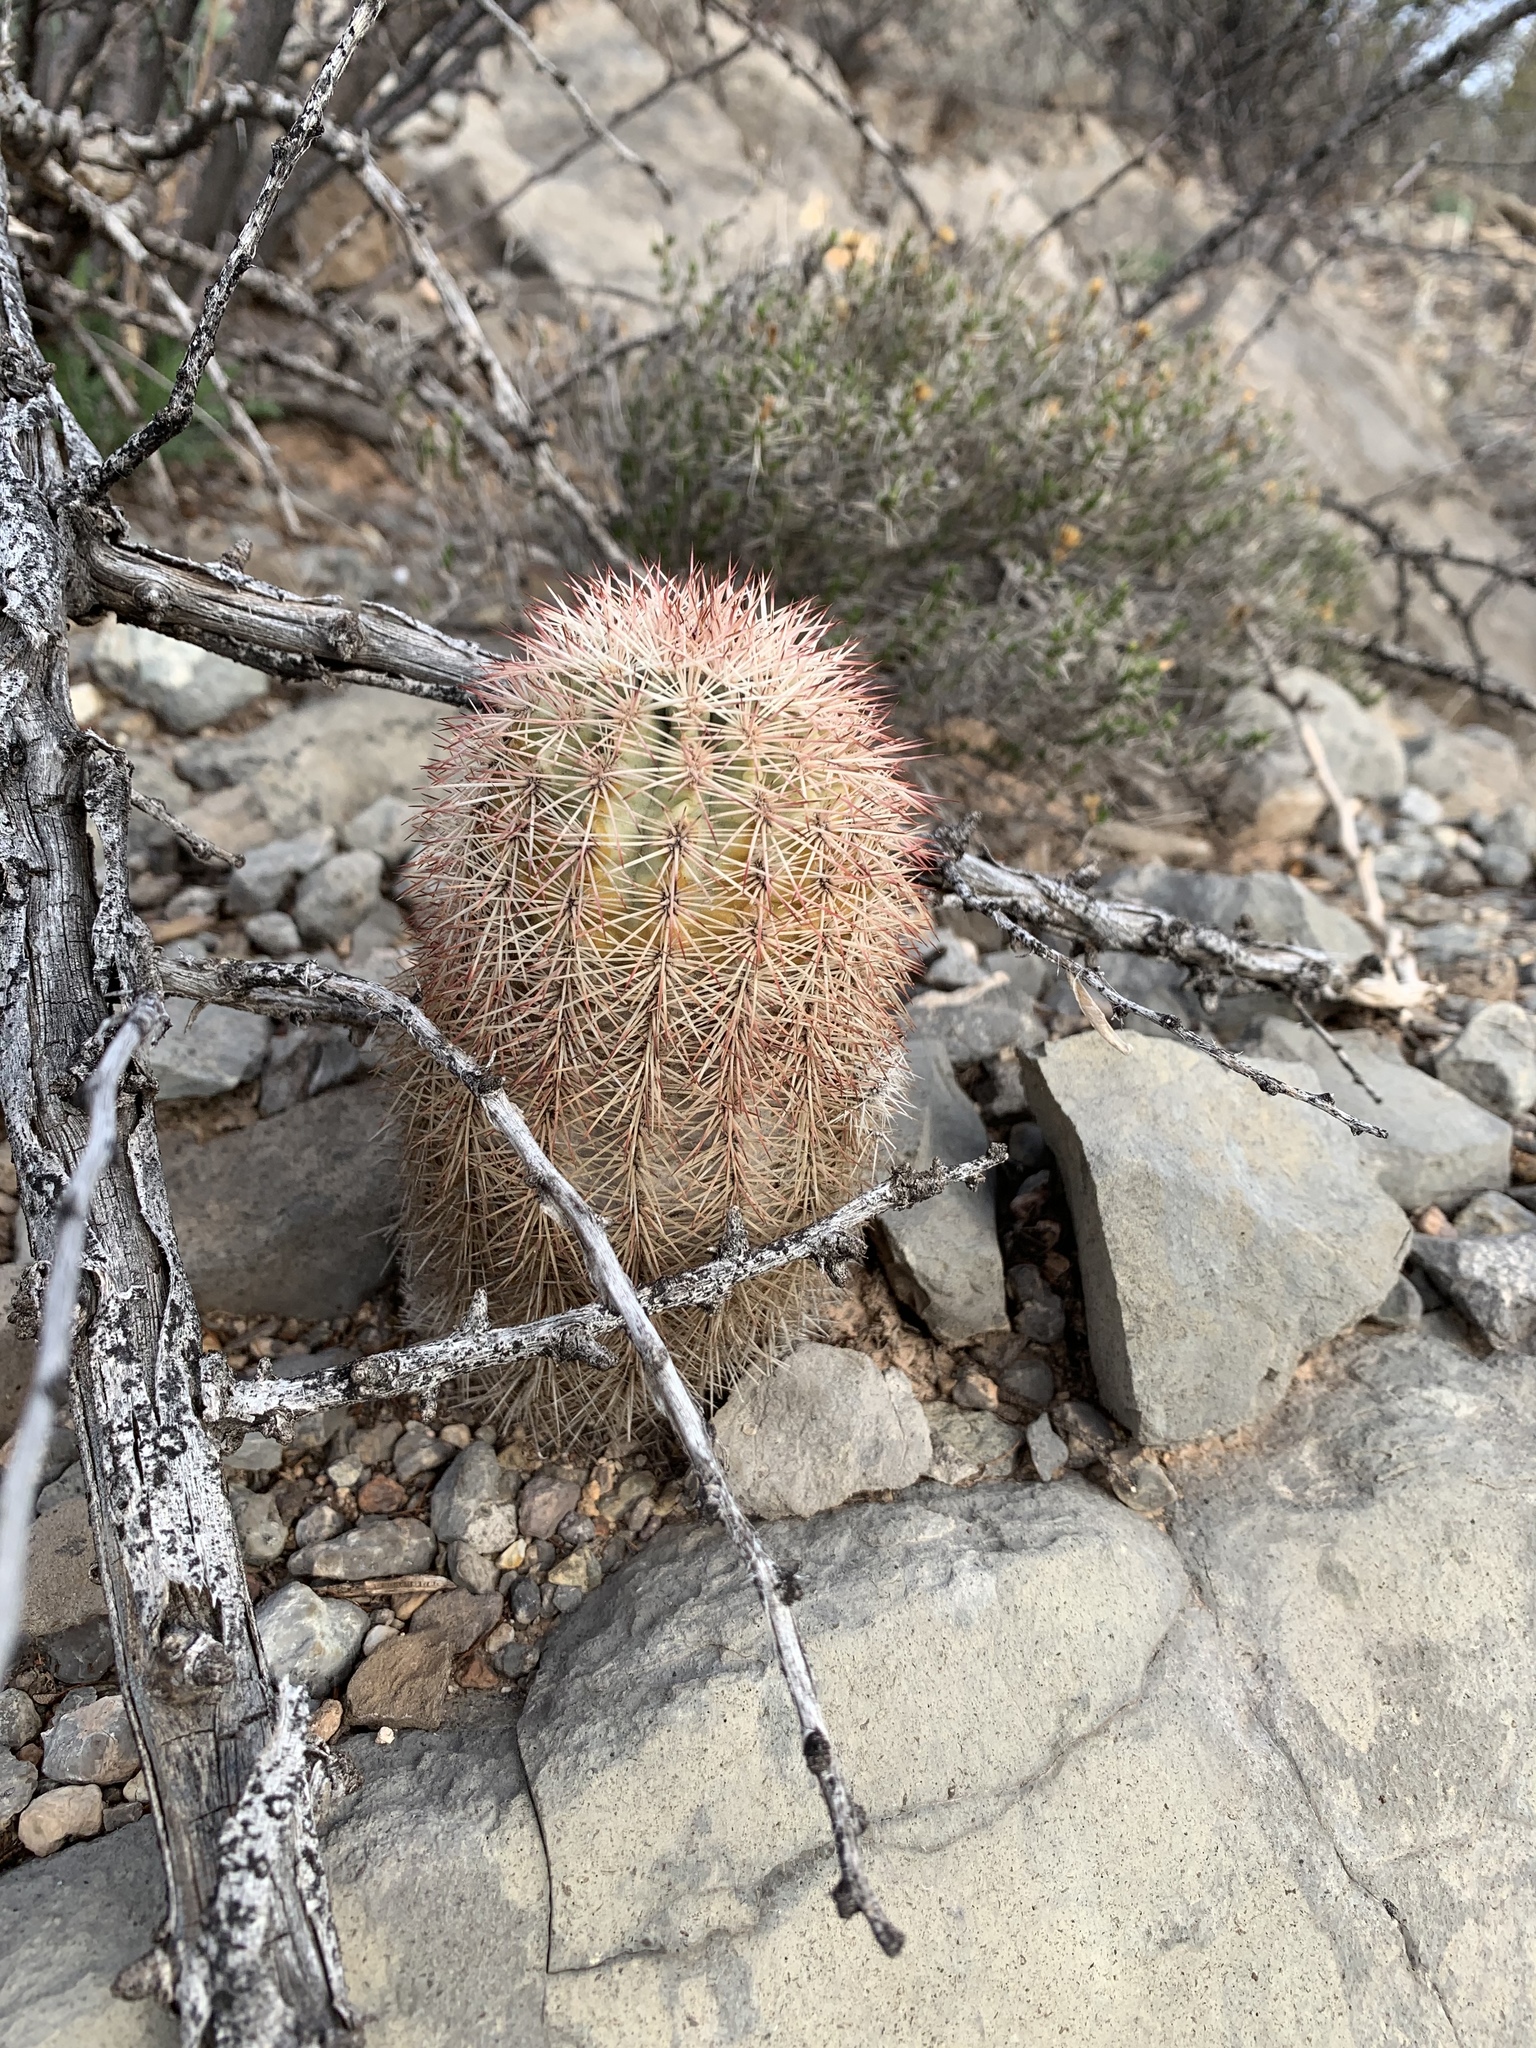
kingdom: Plantae
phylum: Tracheophyta
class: Magnoliopsida
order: Caryophyllales
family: Cactaceae
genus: Echinocereus
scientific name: Echinocereus dasyacanthus
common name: Spiny hedgehog cactus
